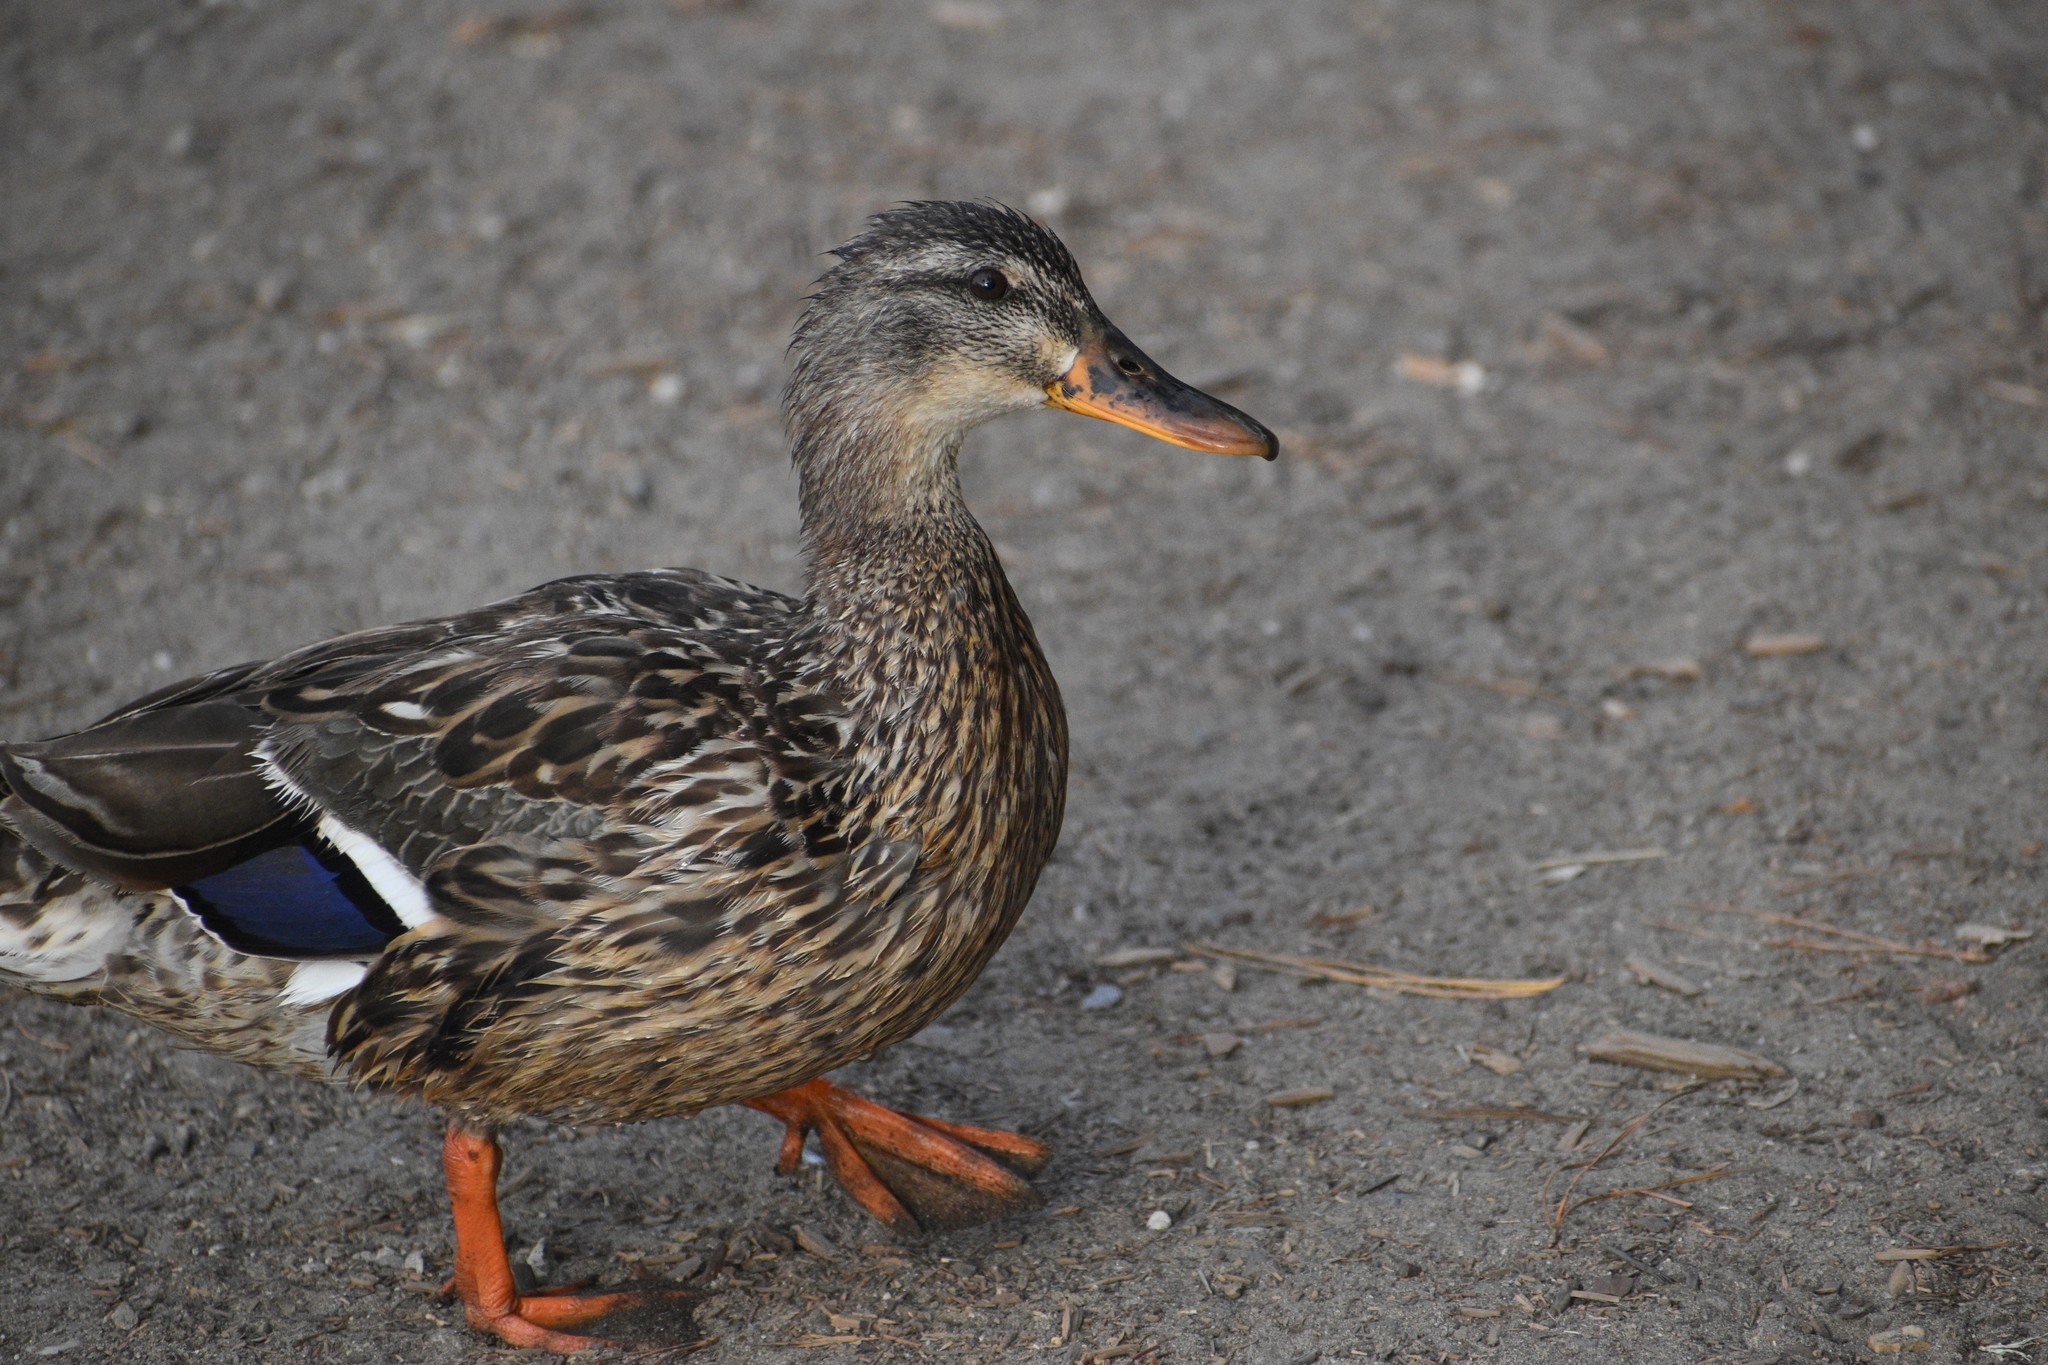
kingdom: Animalia
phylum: Chordata
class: Aves
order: Anseriformes
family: Anatidae
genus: Anas
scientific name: Anas platyrhynchos
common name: Mallard
